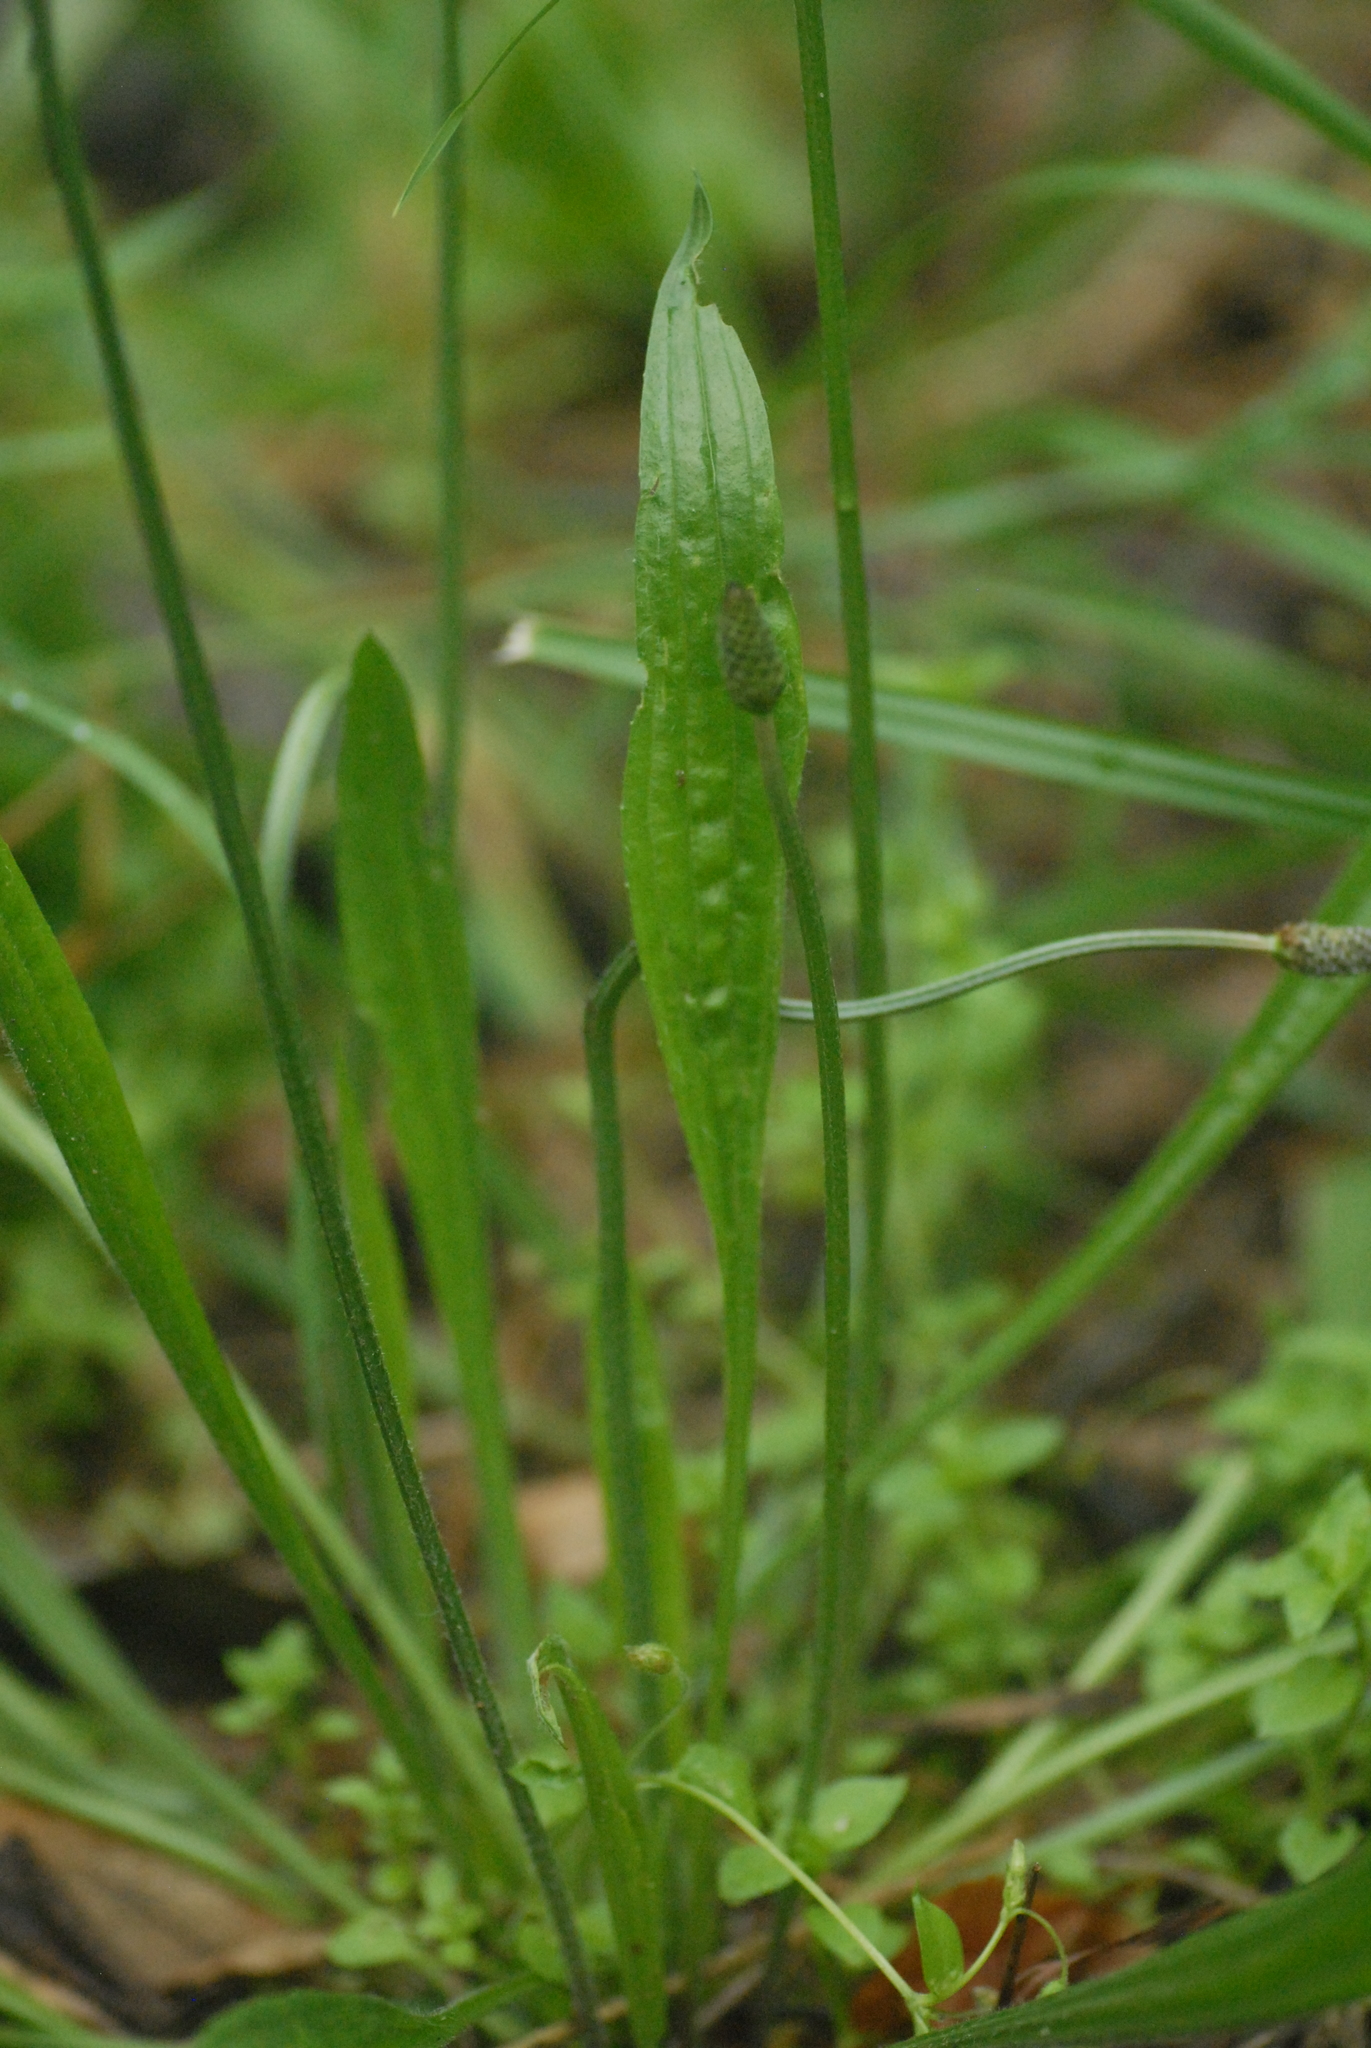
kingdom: Plantae
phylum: Tracheophyta
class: Magnoliopsida
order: Lamiales
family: Plantaginaceae
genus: Plantago
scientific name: Plantago lanceolata
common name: Ribwort plantain
